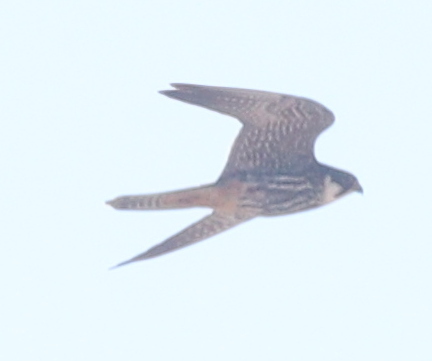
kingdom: Animalia
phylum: Chordata
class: Aves
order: Falconiformes
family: Falconidae
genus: Falco
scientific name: Falco subbuteo
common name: Eurasian hobby
